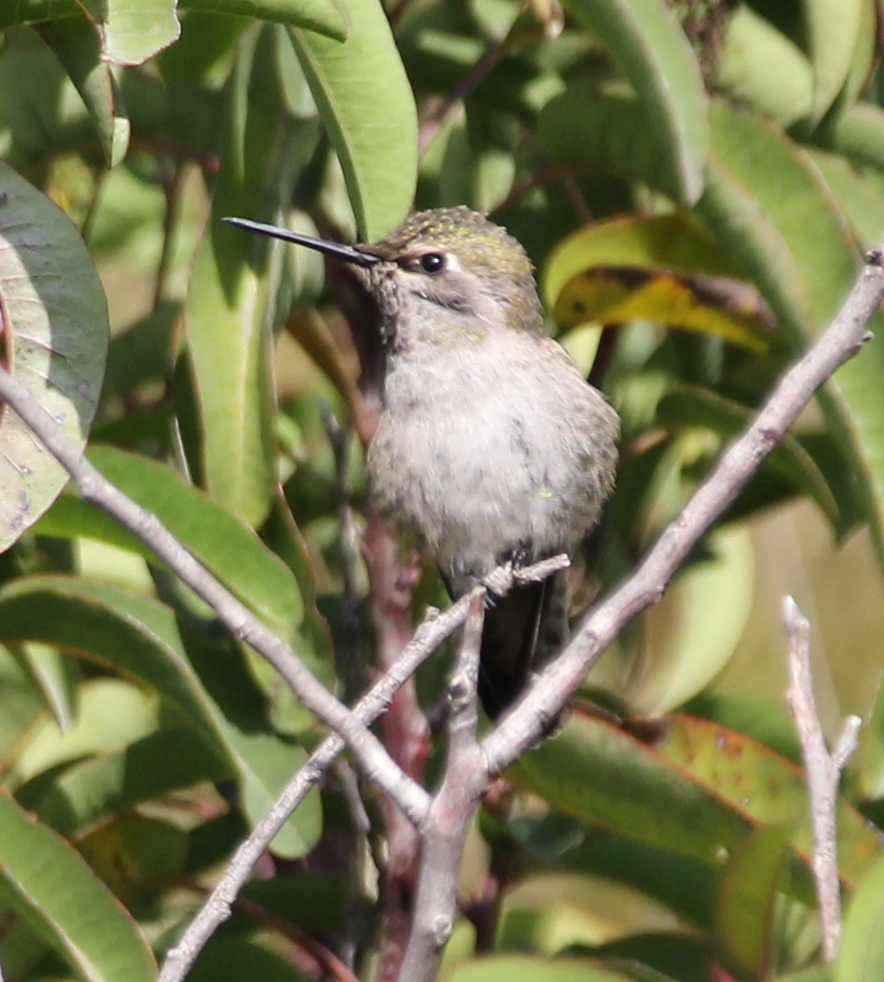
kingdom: Animalia
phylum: Chordata
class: Aves
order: Apodiformes
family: Trochilidae
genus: Calypte
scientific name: Calypte anna
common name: Anna's hummingbird
